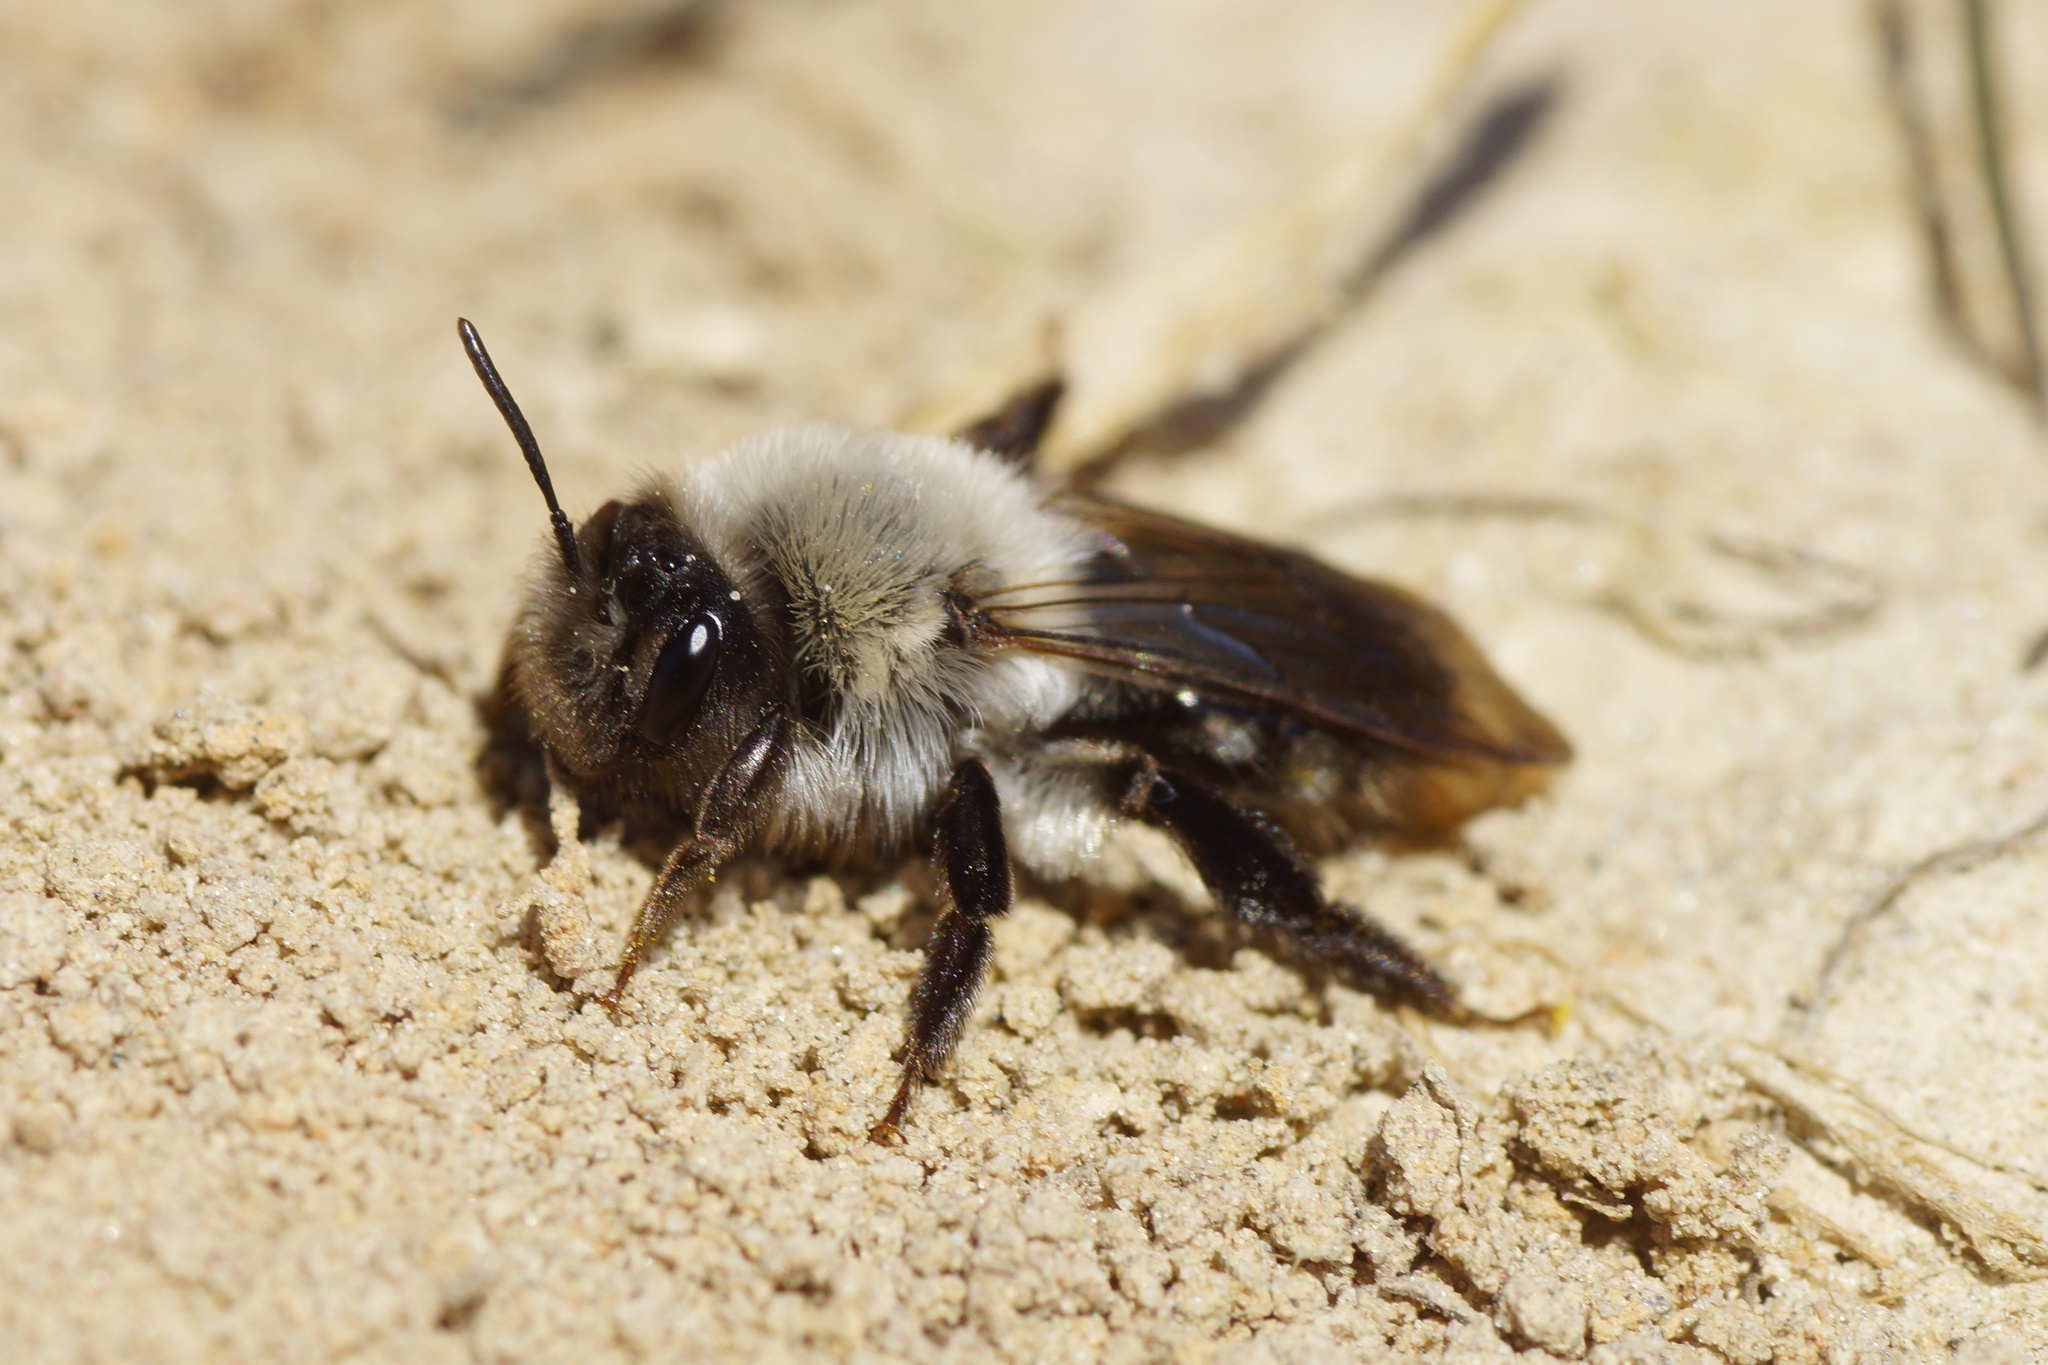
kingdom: Animalia
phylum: Arthropoda
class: Insecta
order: Hymenoptera
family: Andrenidae
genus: Andrena
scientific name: Andrena vaga
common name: Grey-backed mining bee
